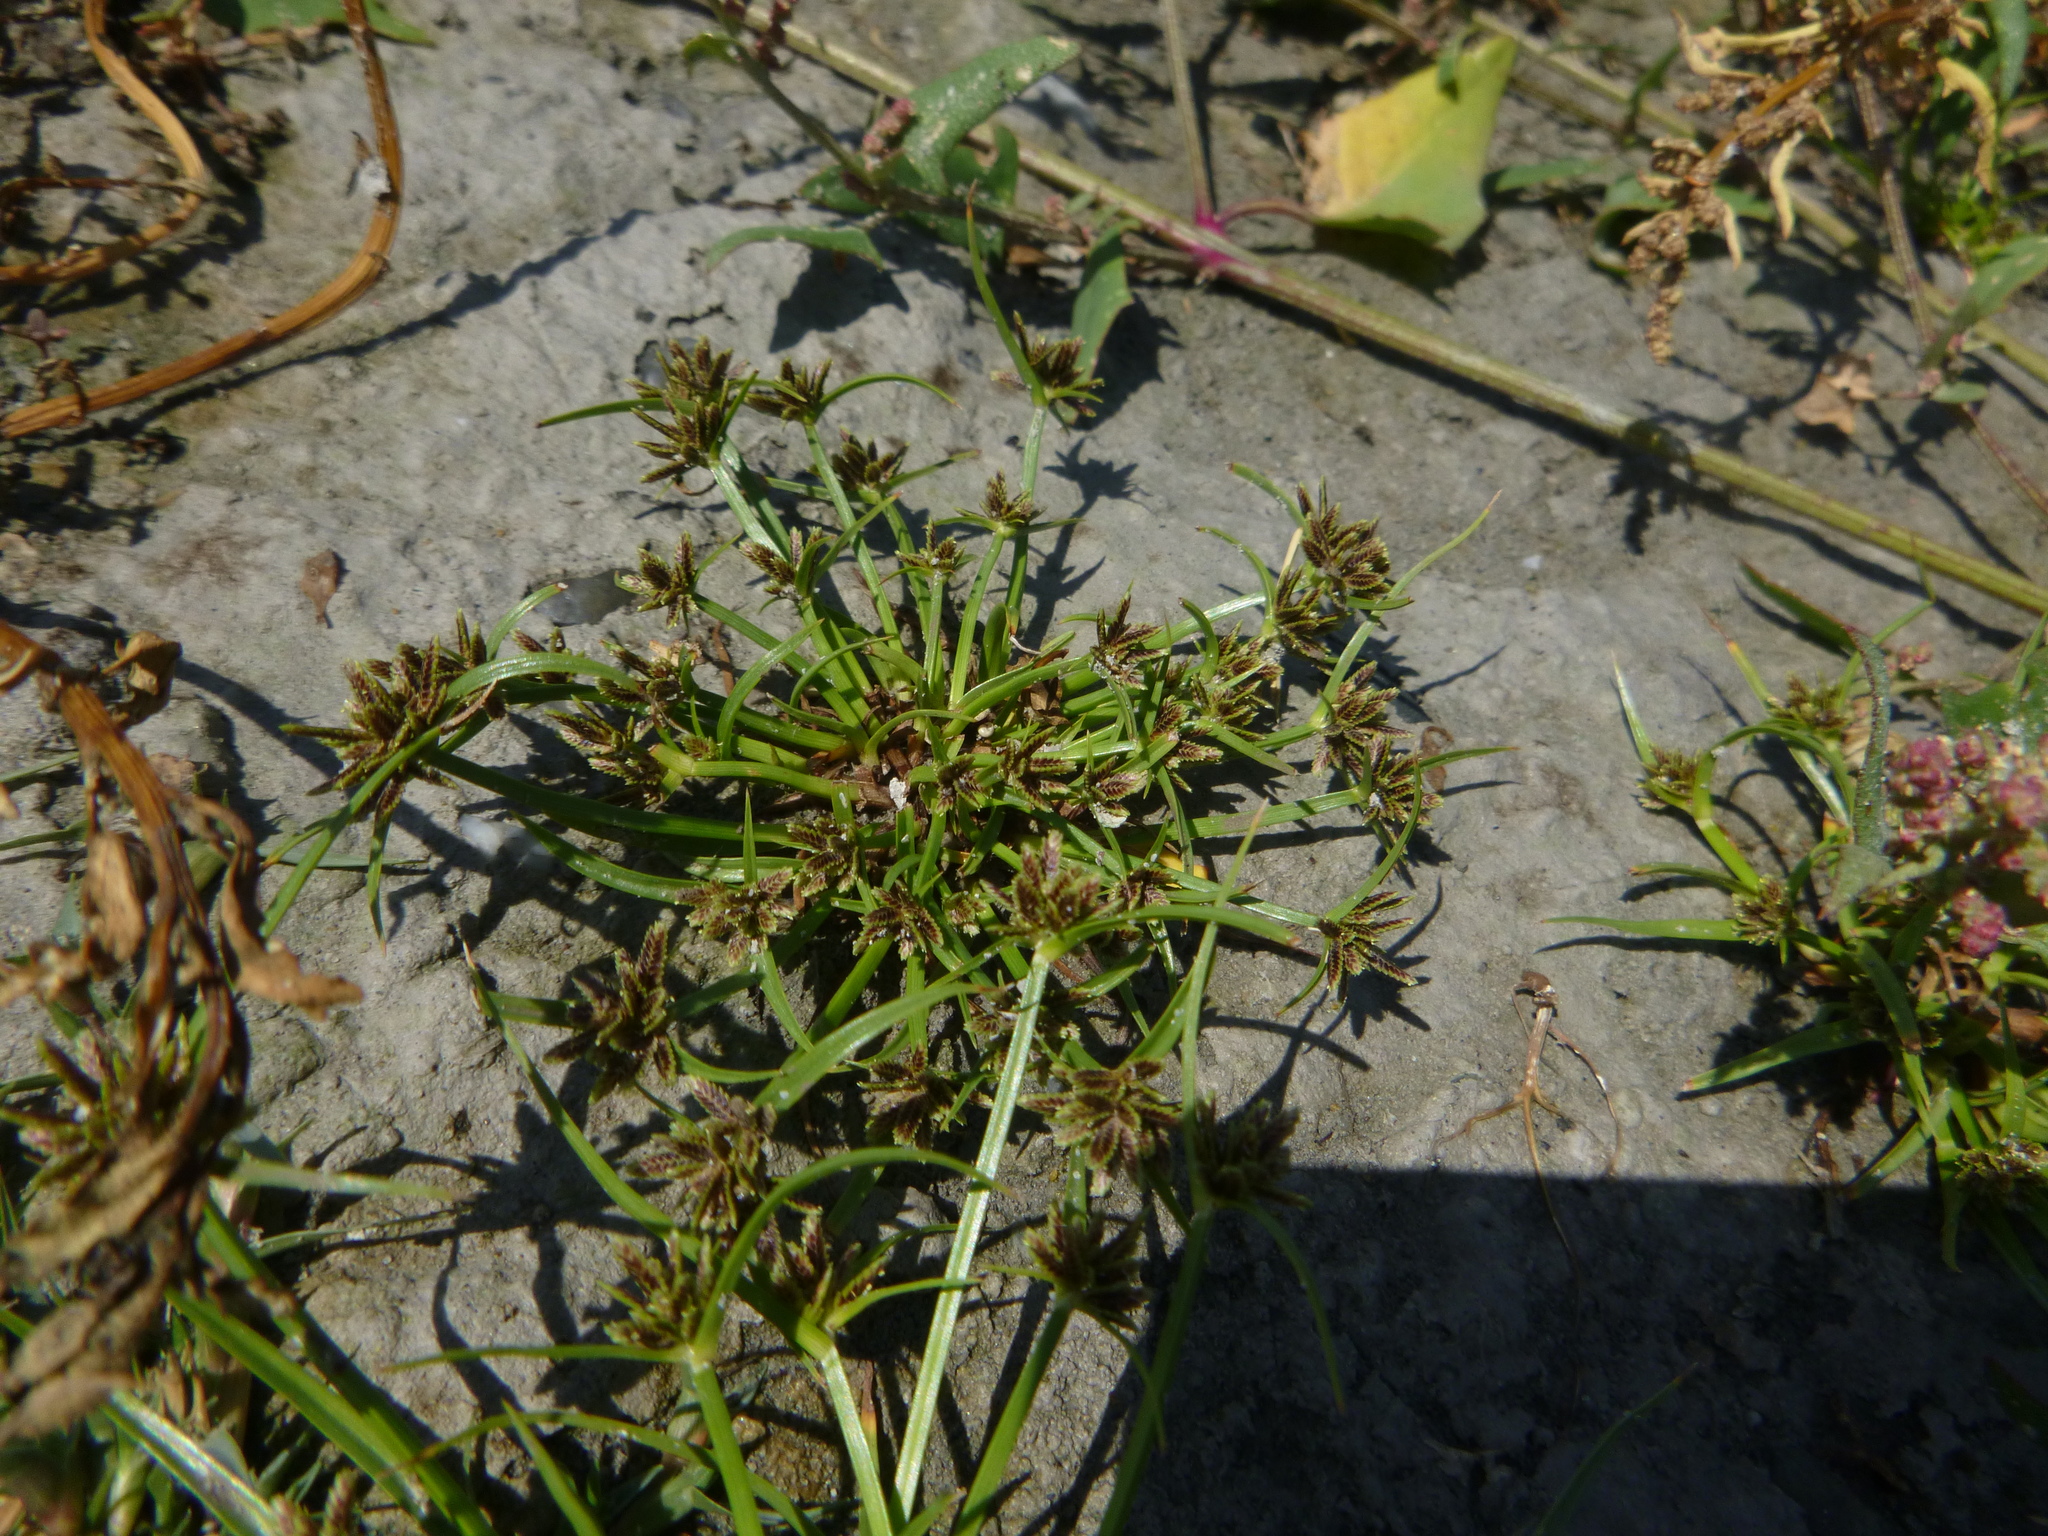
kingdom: Plantae
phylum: Tracheophyta
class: Liliopsida
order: Poales
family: Cyperaceae
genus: Cyperus
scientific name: Cyperus fuscus
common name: Brown galingale
